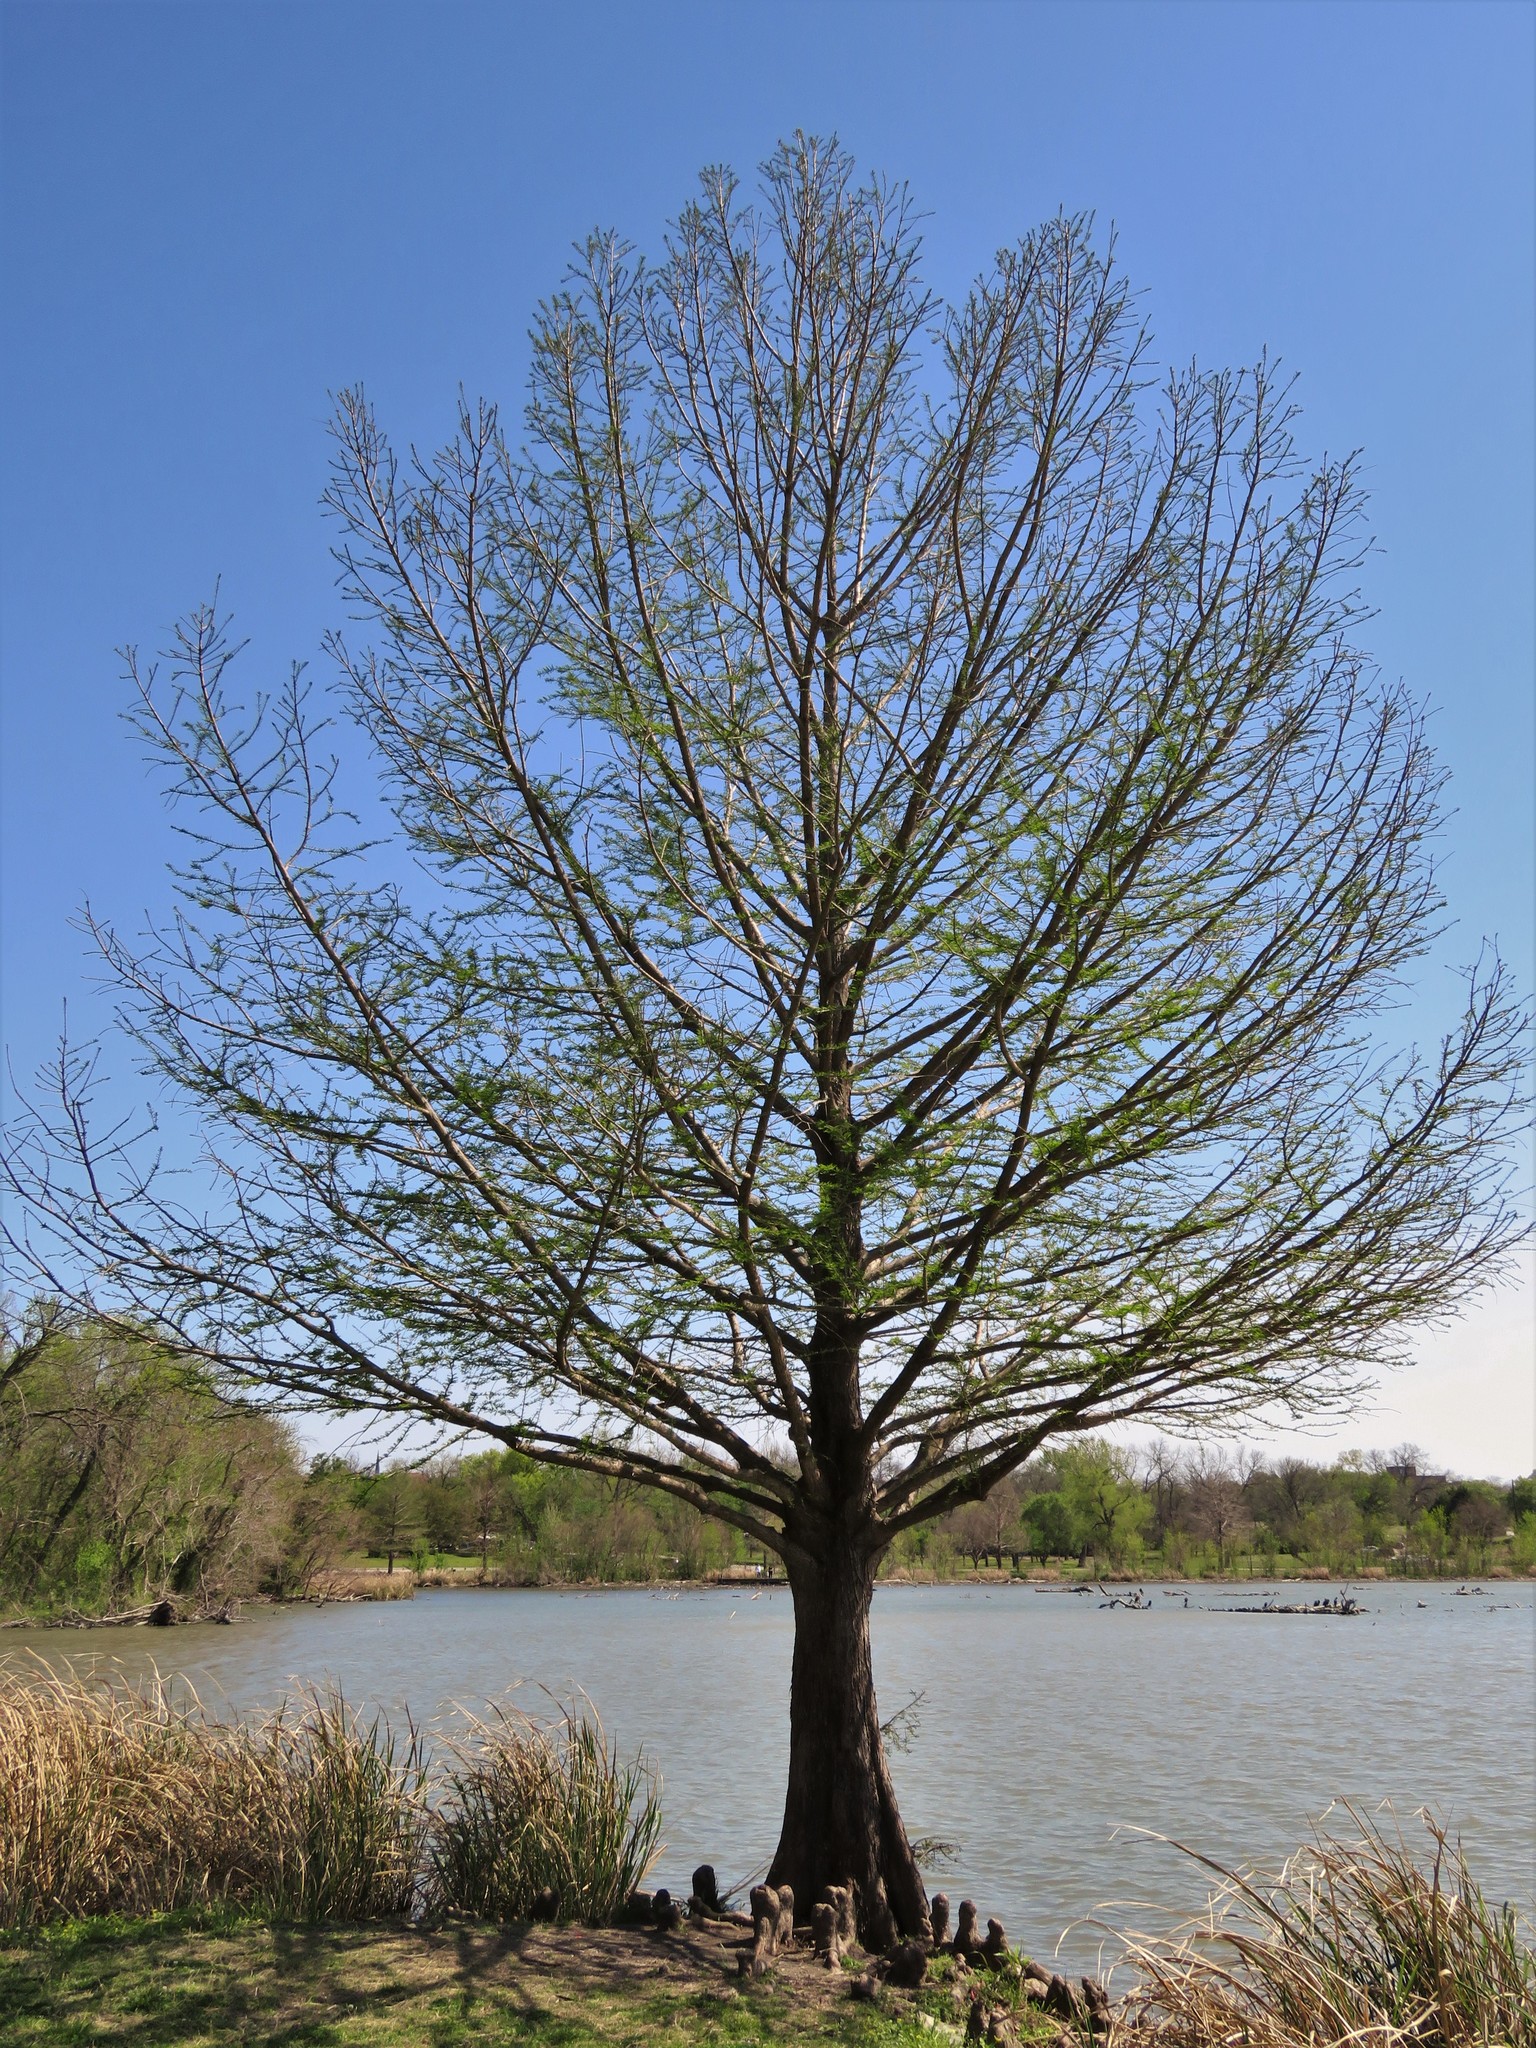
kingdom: Plantae
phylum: Tracheophyta
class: Pinopsida
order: Pinales
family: Cupressaceae
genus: Taxodium
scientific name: Taxodium distichum
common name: Bald cypress
